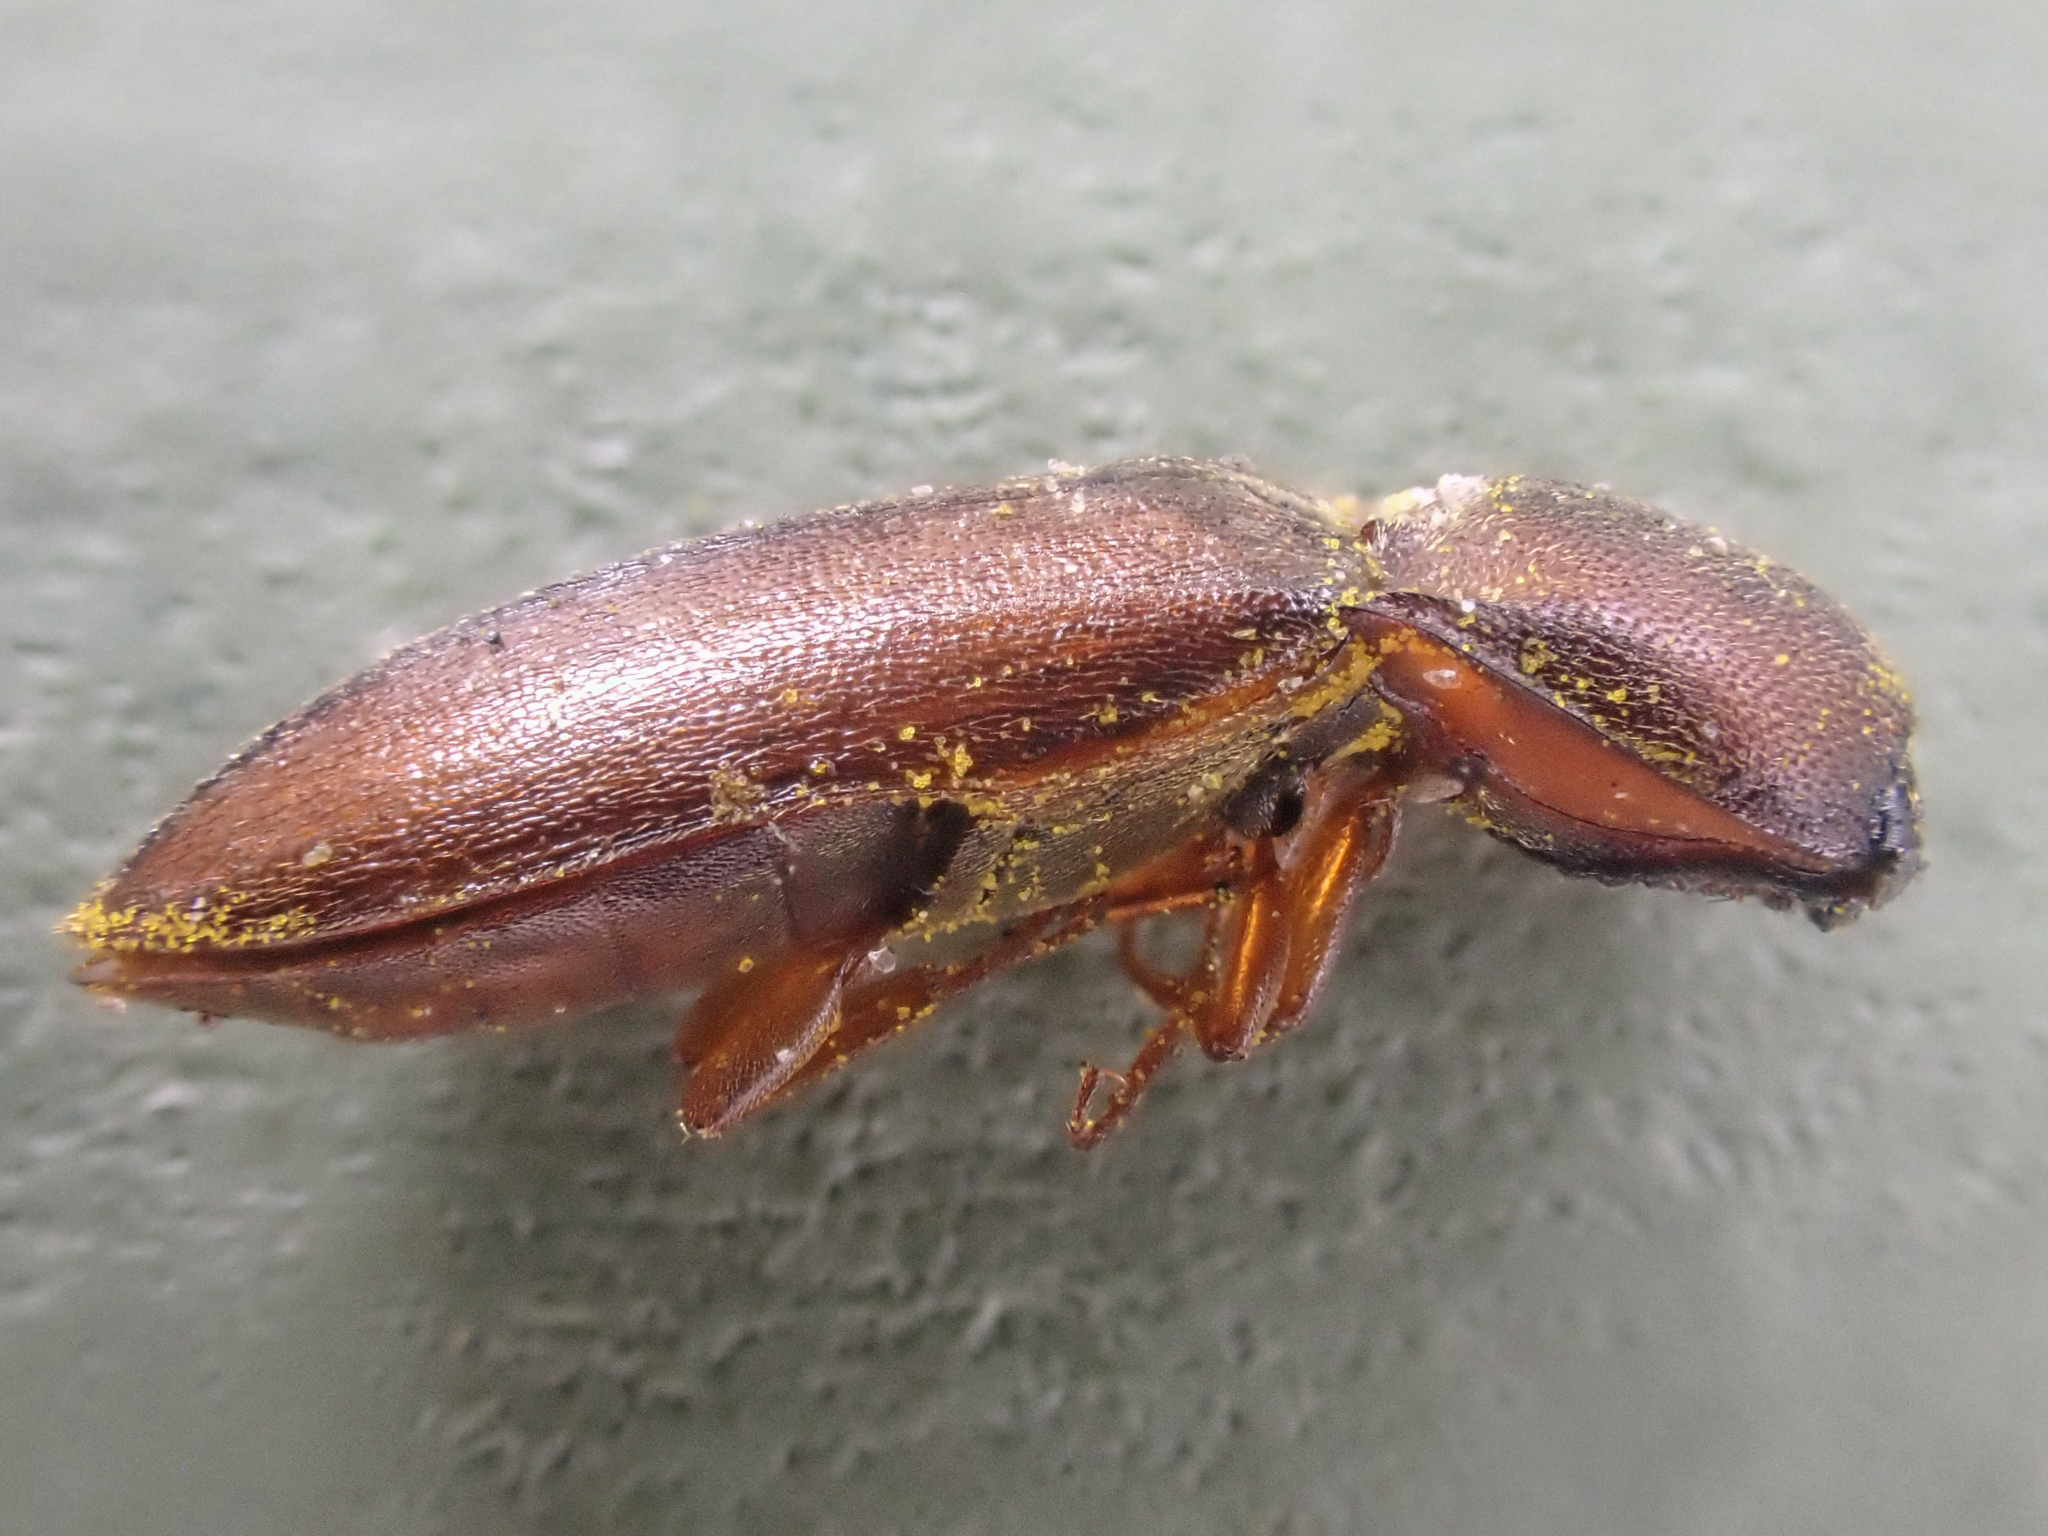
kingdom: Animalia
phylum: Arthropoda
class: Insecta
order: Coleoptera
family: Elateridae
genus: Sericus
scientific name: Sericus incongruus
